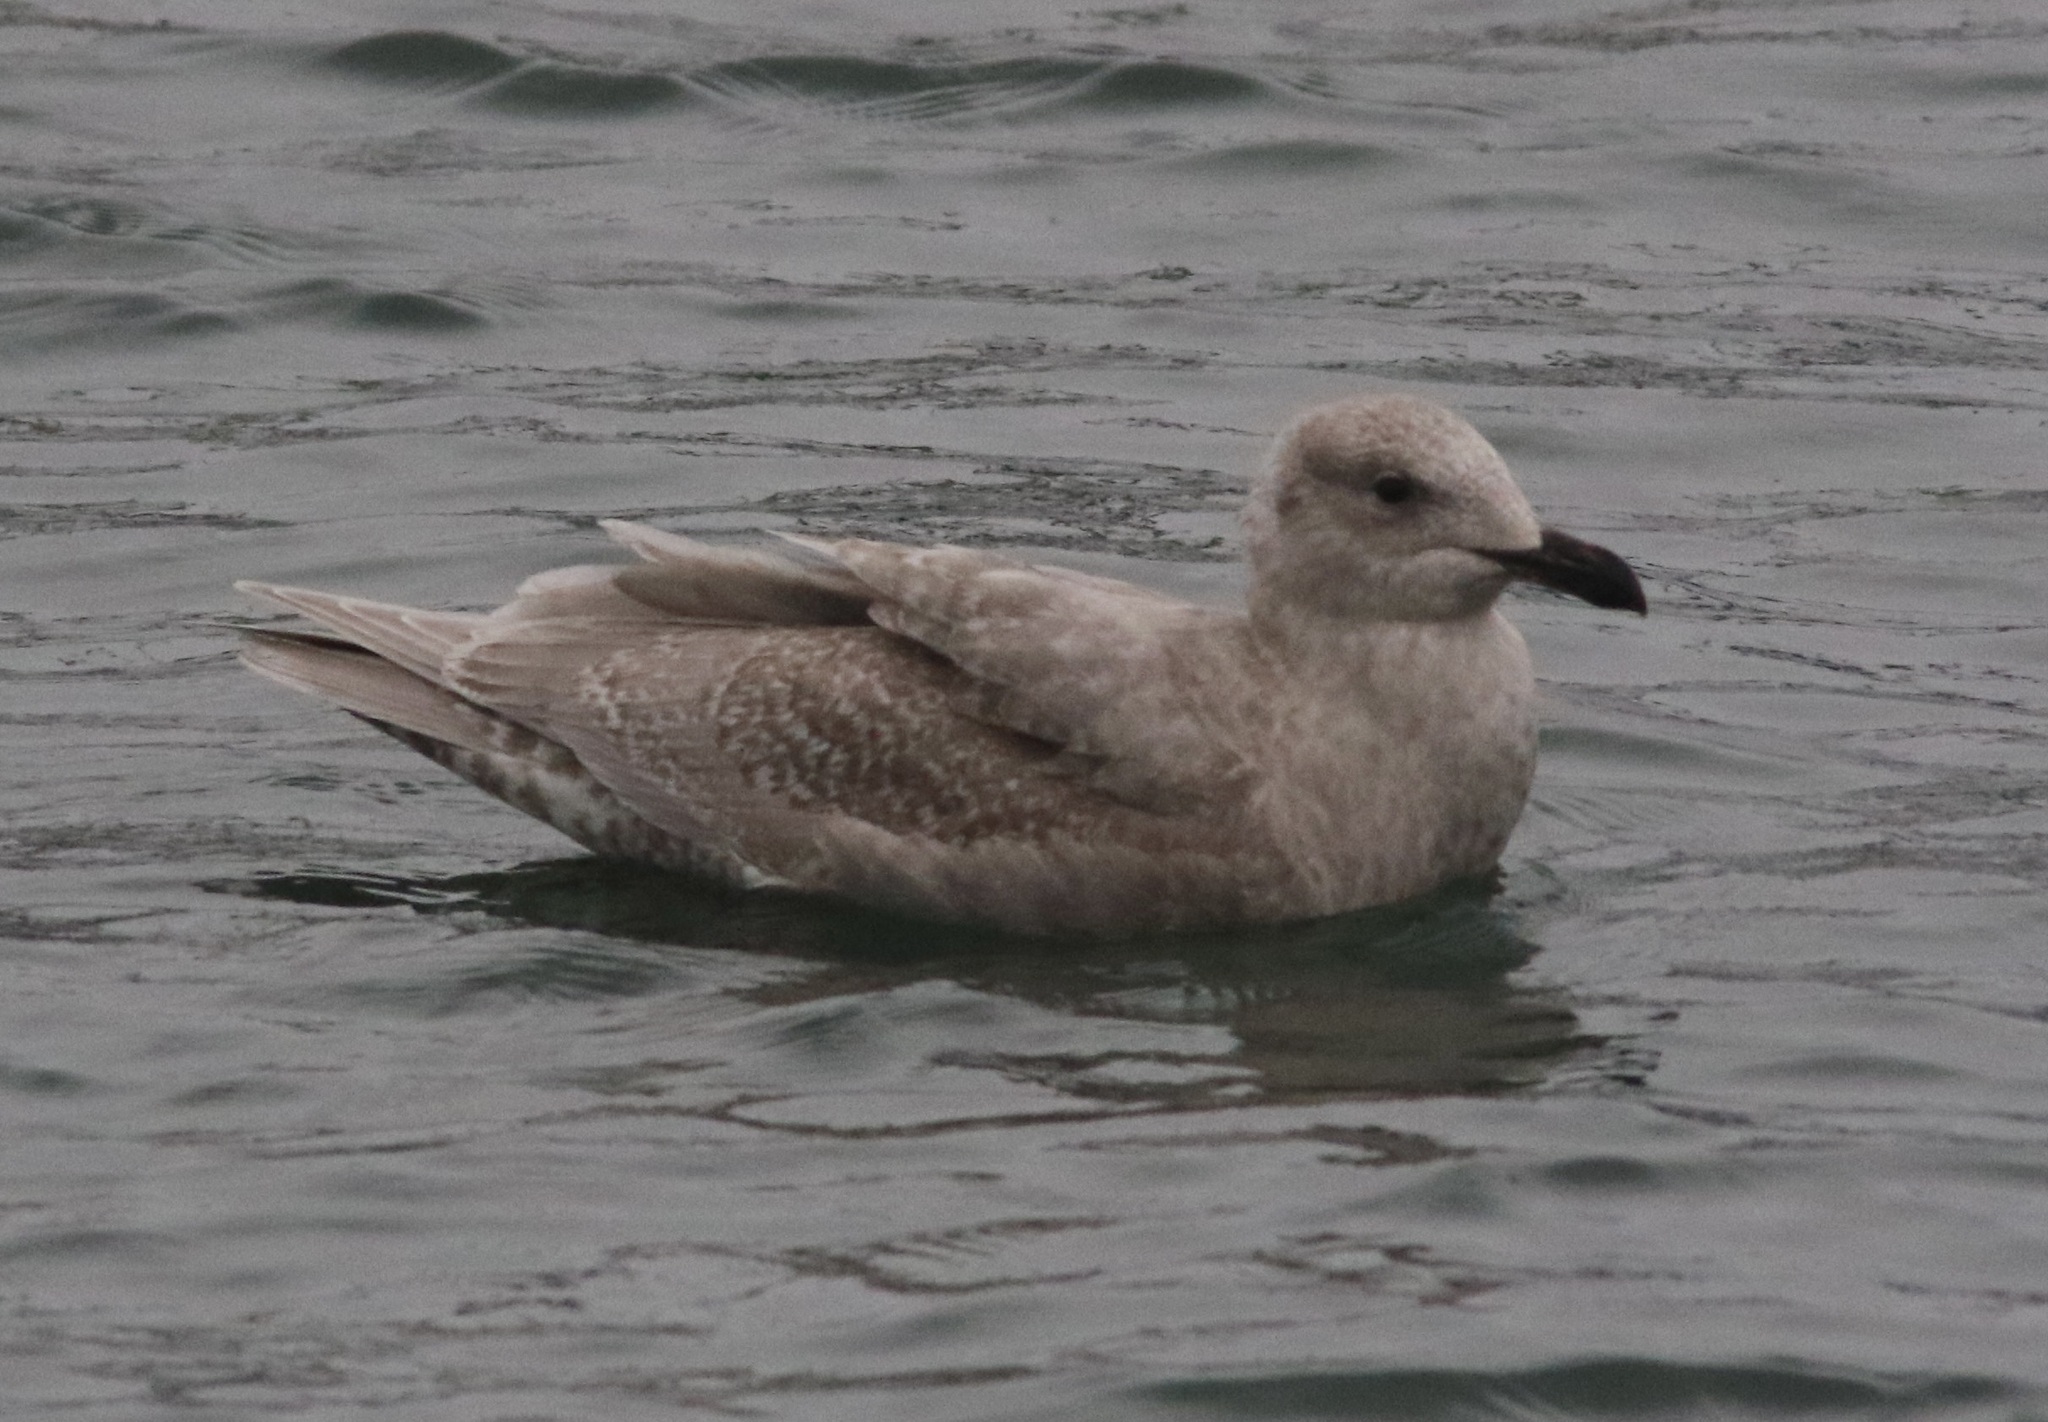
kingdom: Animalia
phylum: Chordata
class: Aves
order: Charadriiformes
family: Laridae
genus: Larus
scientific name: Larus glaucescens
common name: Glaucous-winged gull
